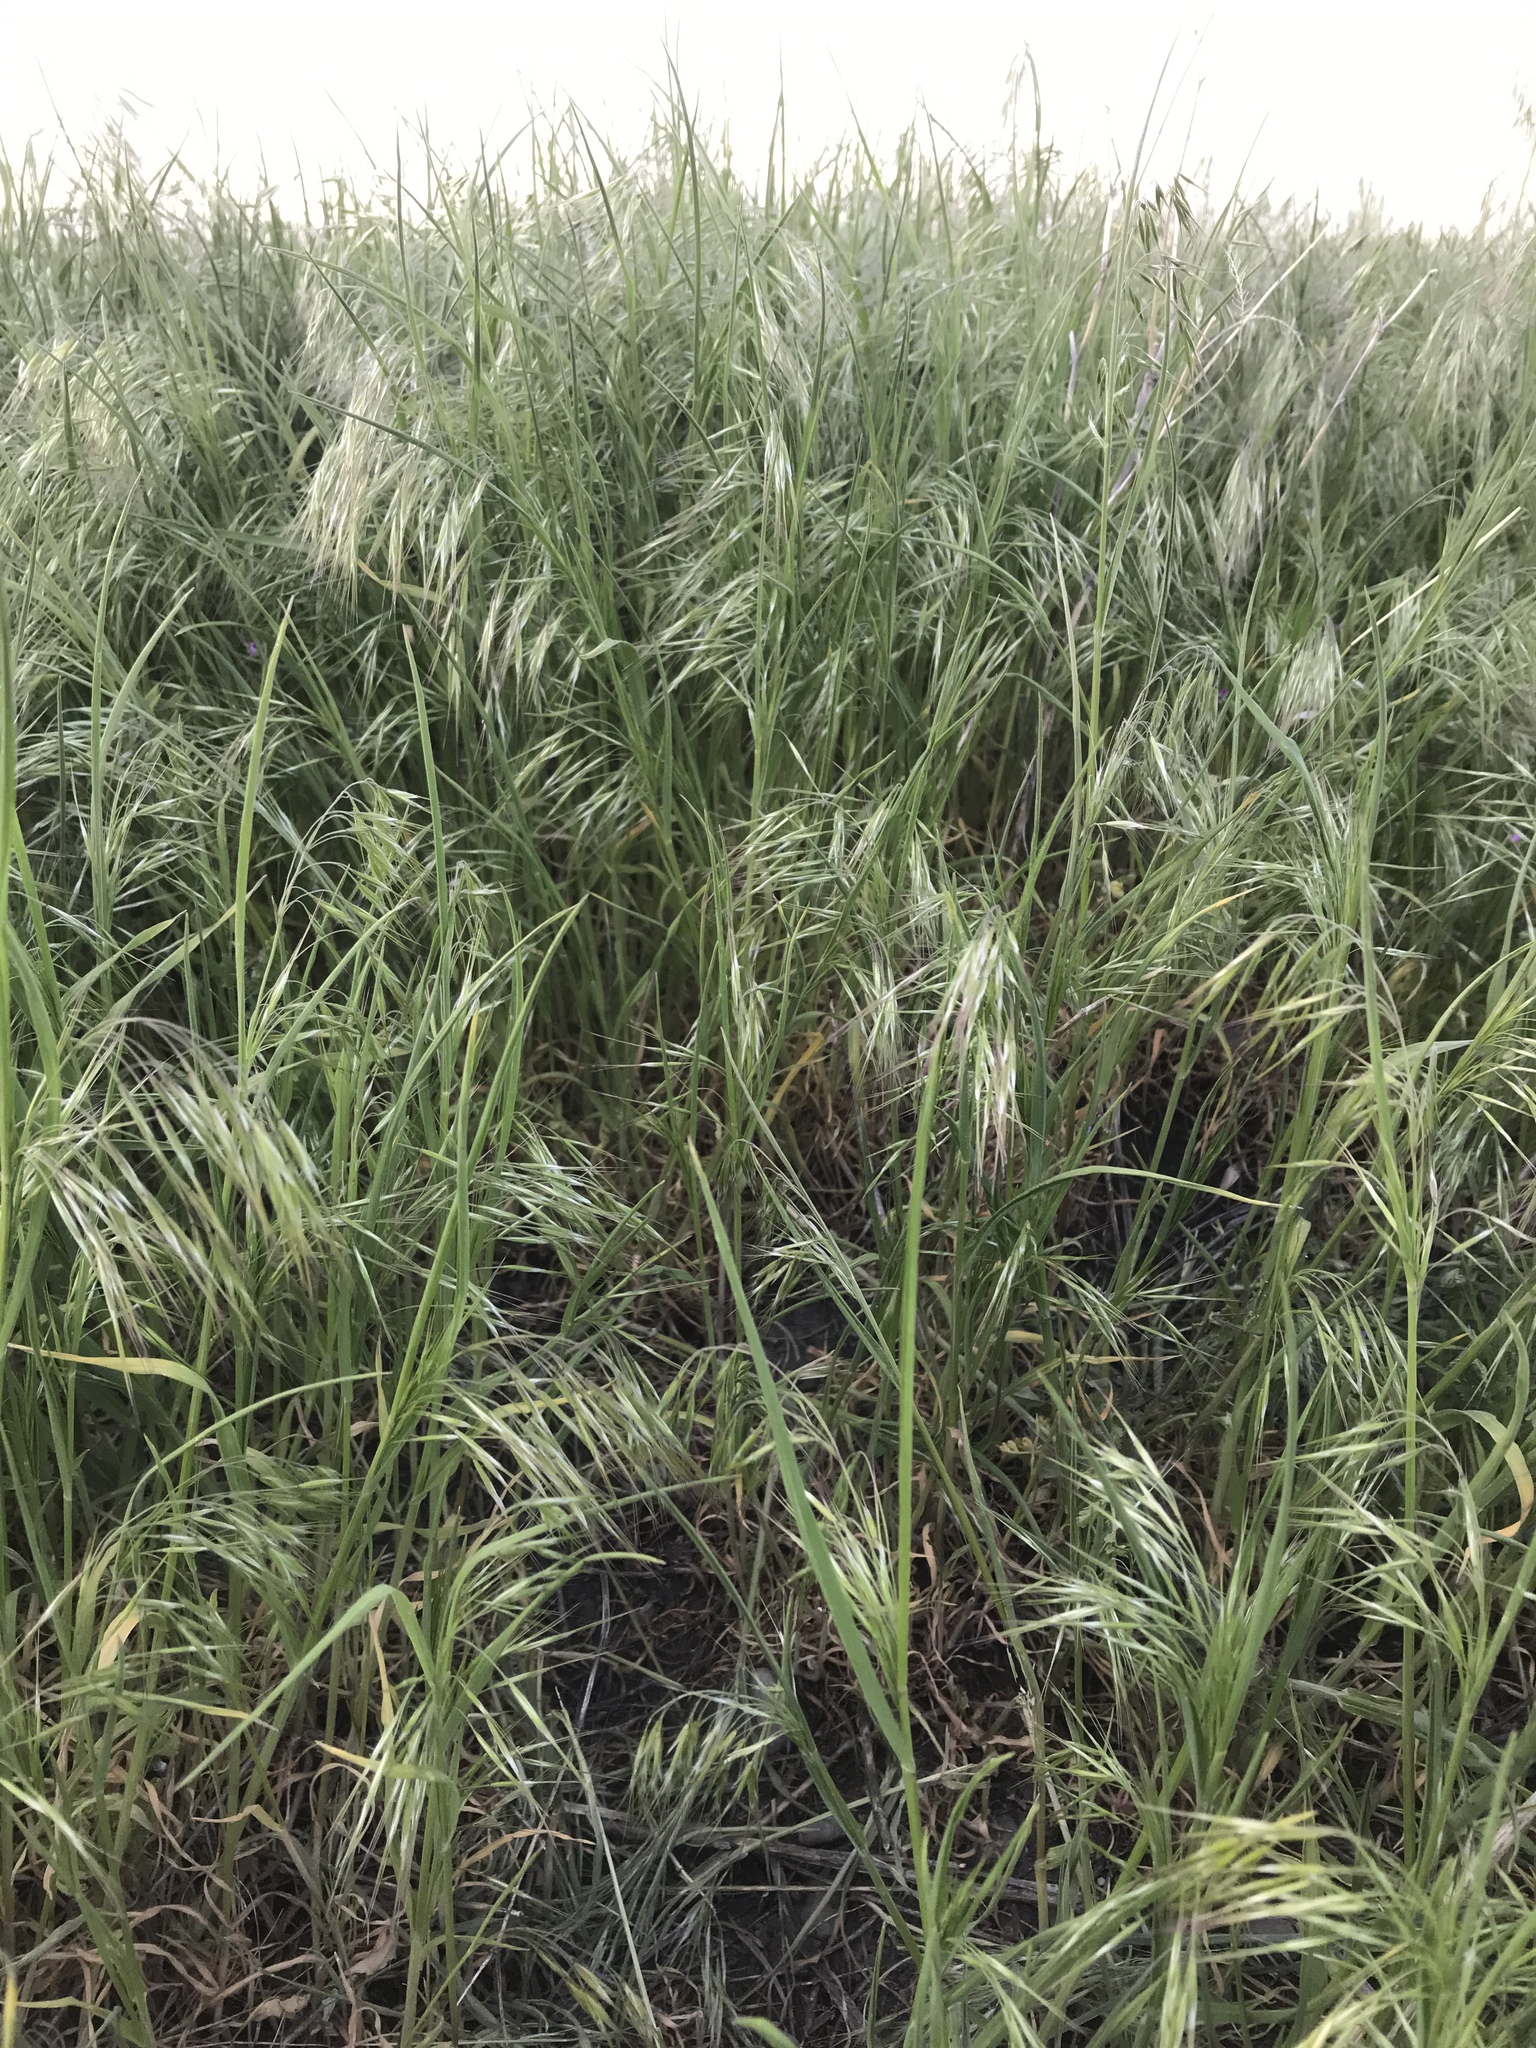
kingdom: Plantae
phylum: Tracheophyta
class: Liliopsida
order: Poales
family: Poaceae
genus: Bromus
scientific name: Bromus tectorum
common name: Cheatgrass
